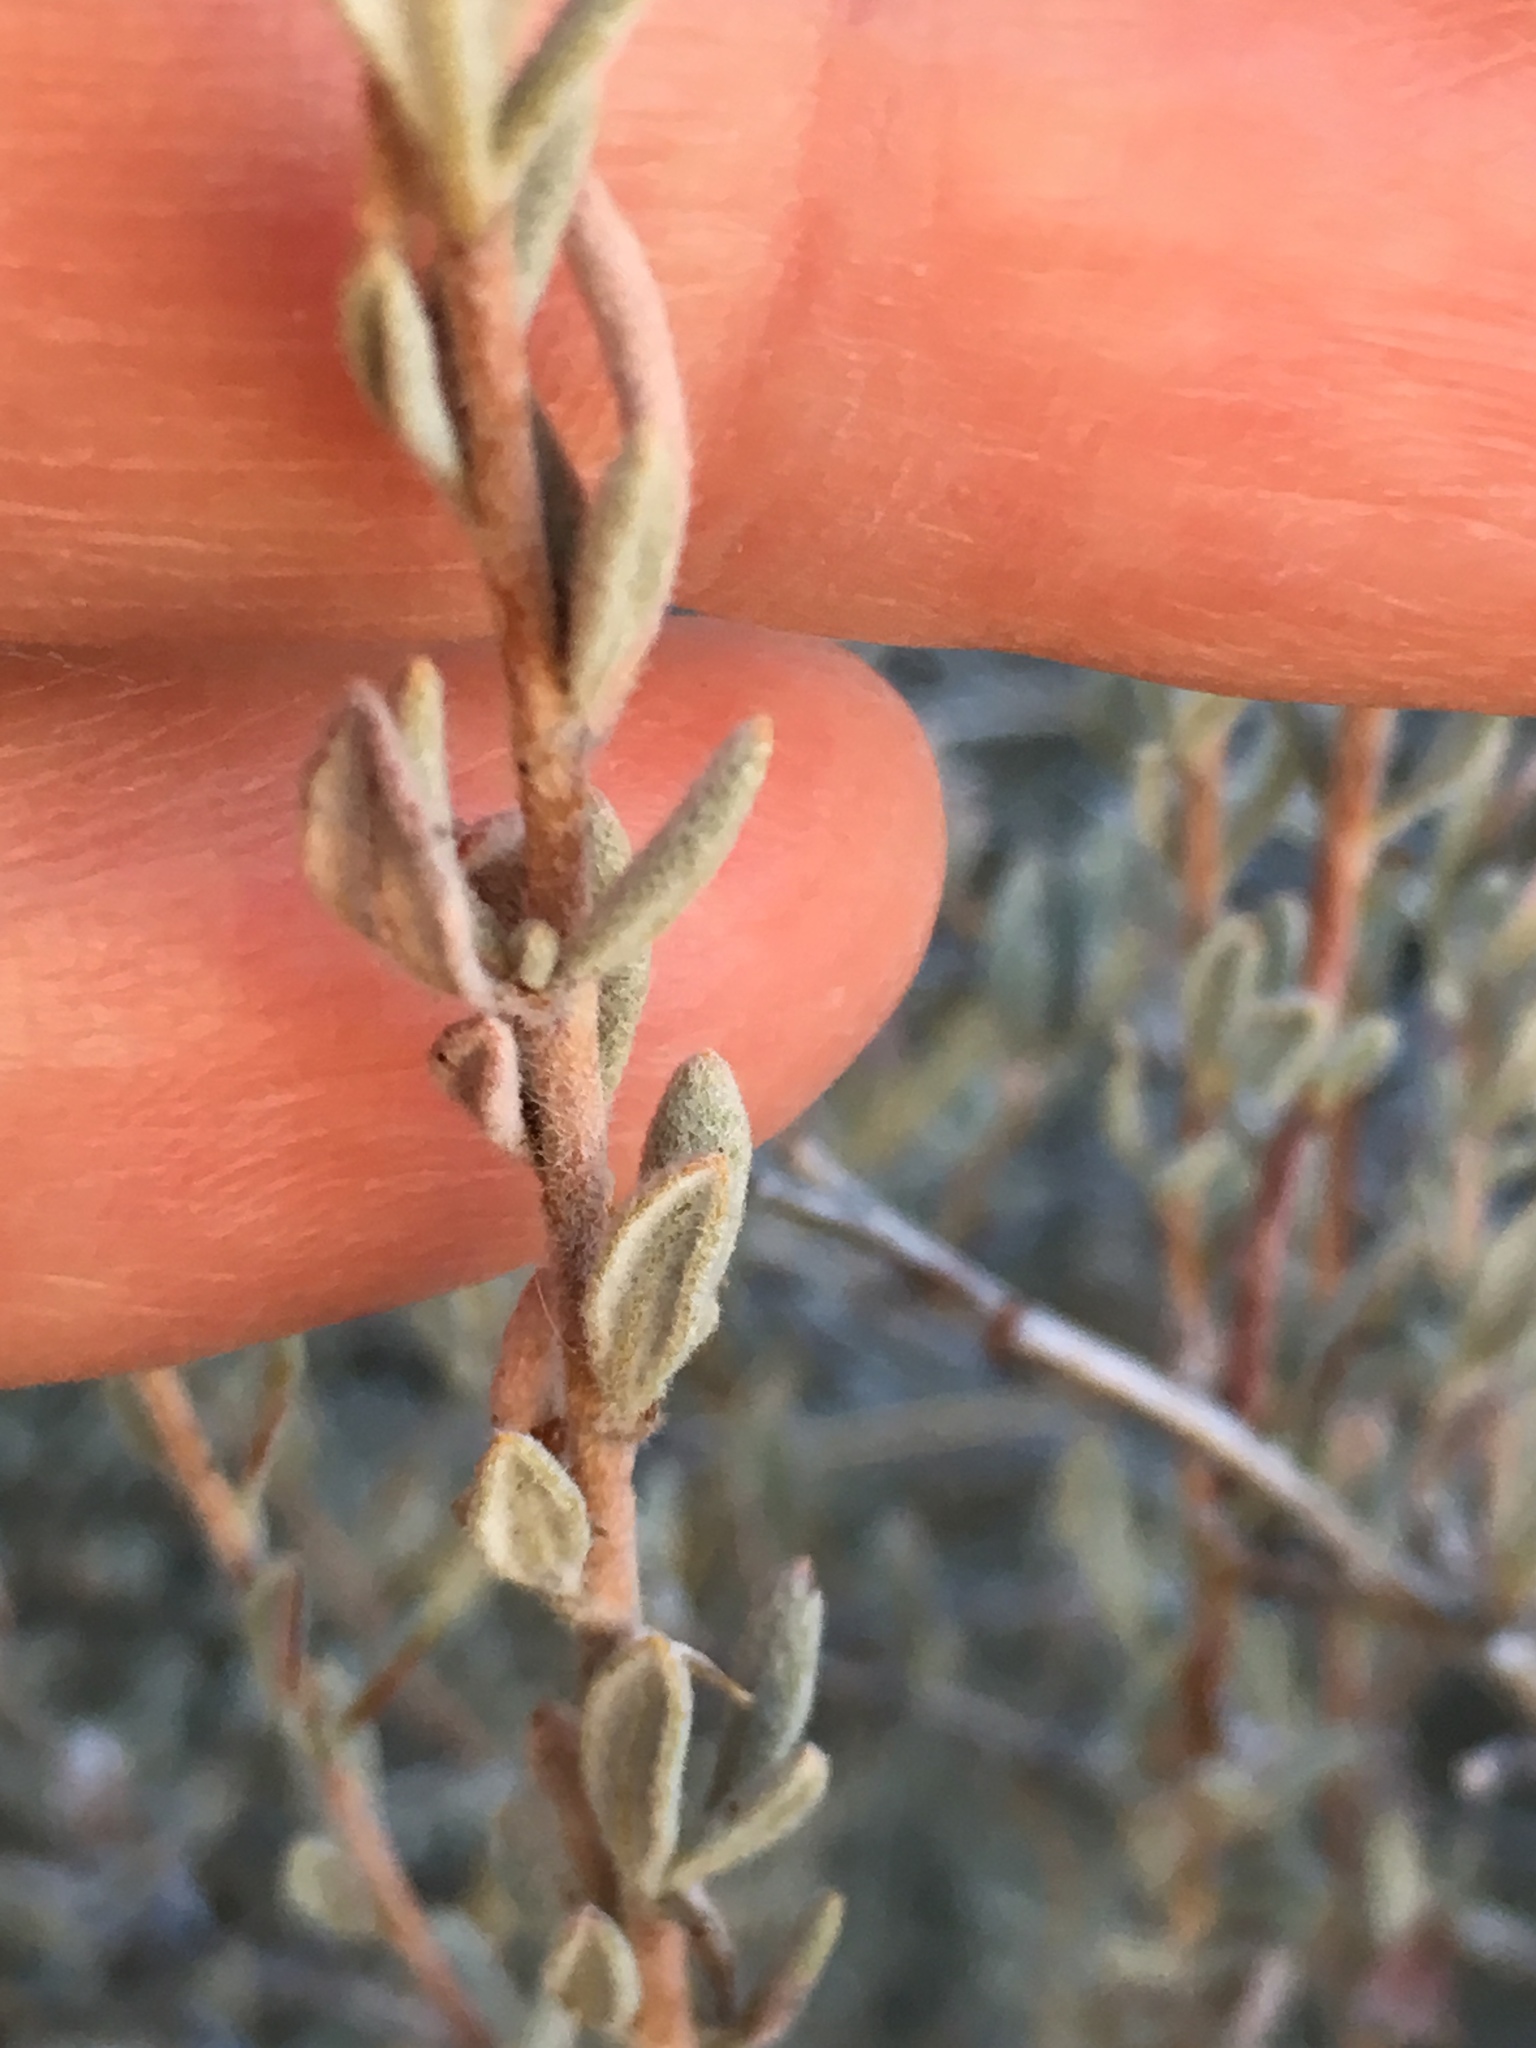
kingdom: Plantae
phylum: Tracheophyta
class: Magnoliopsida
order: Caryophyllales
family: Polygonaceae
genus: Eriogonum
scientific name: Eriogonum fasciculatum
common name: California wild buckwheat
